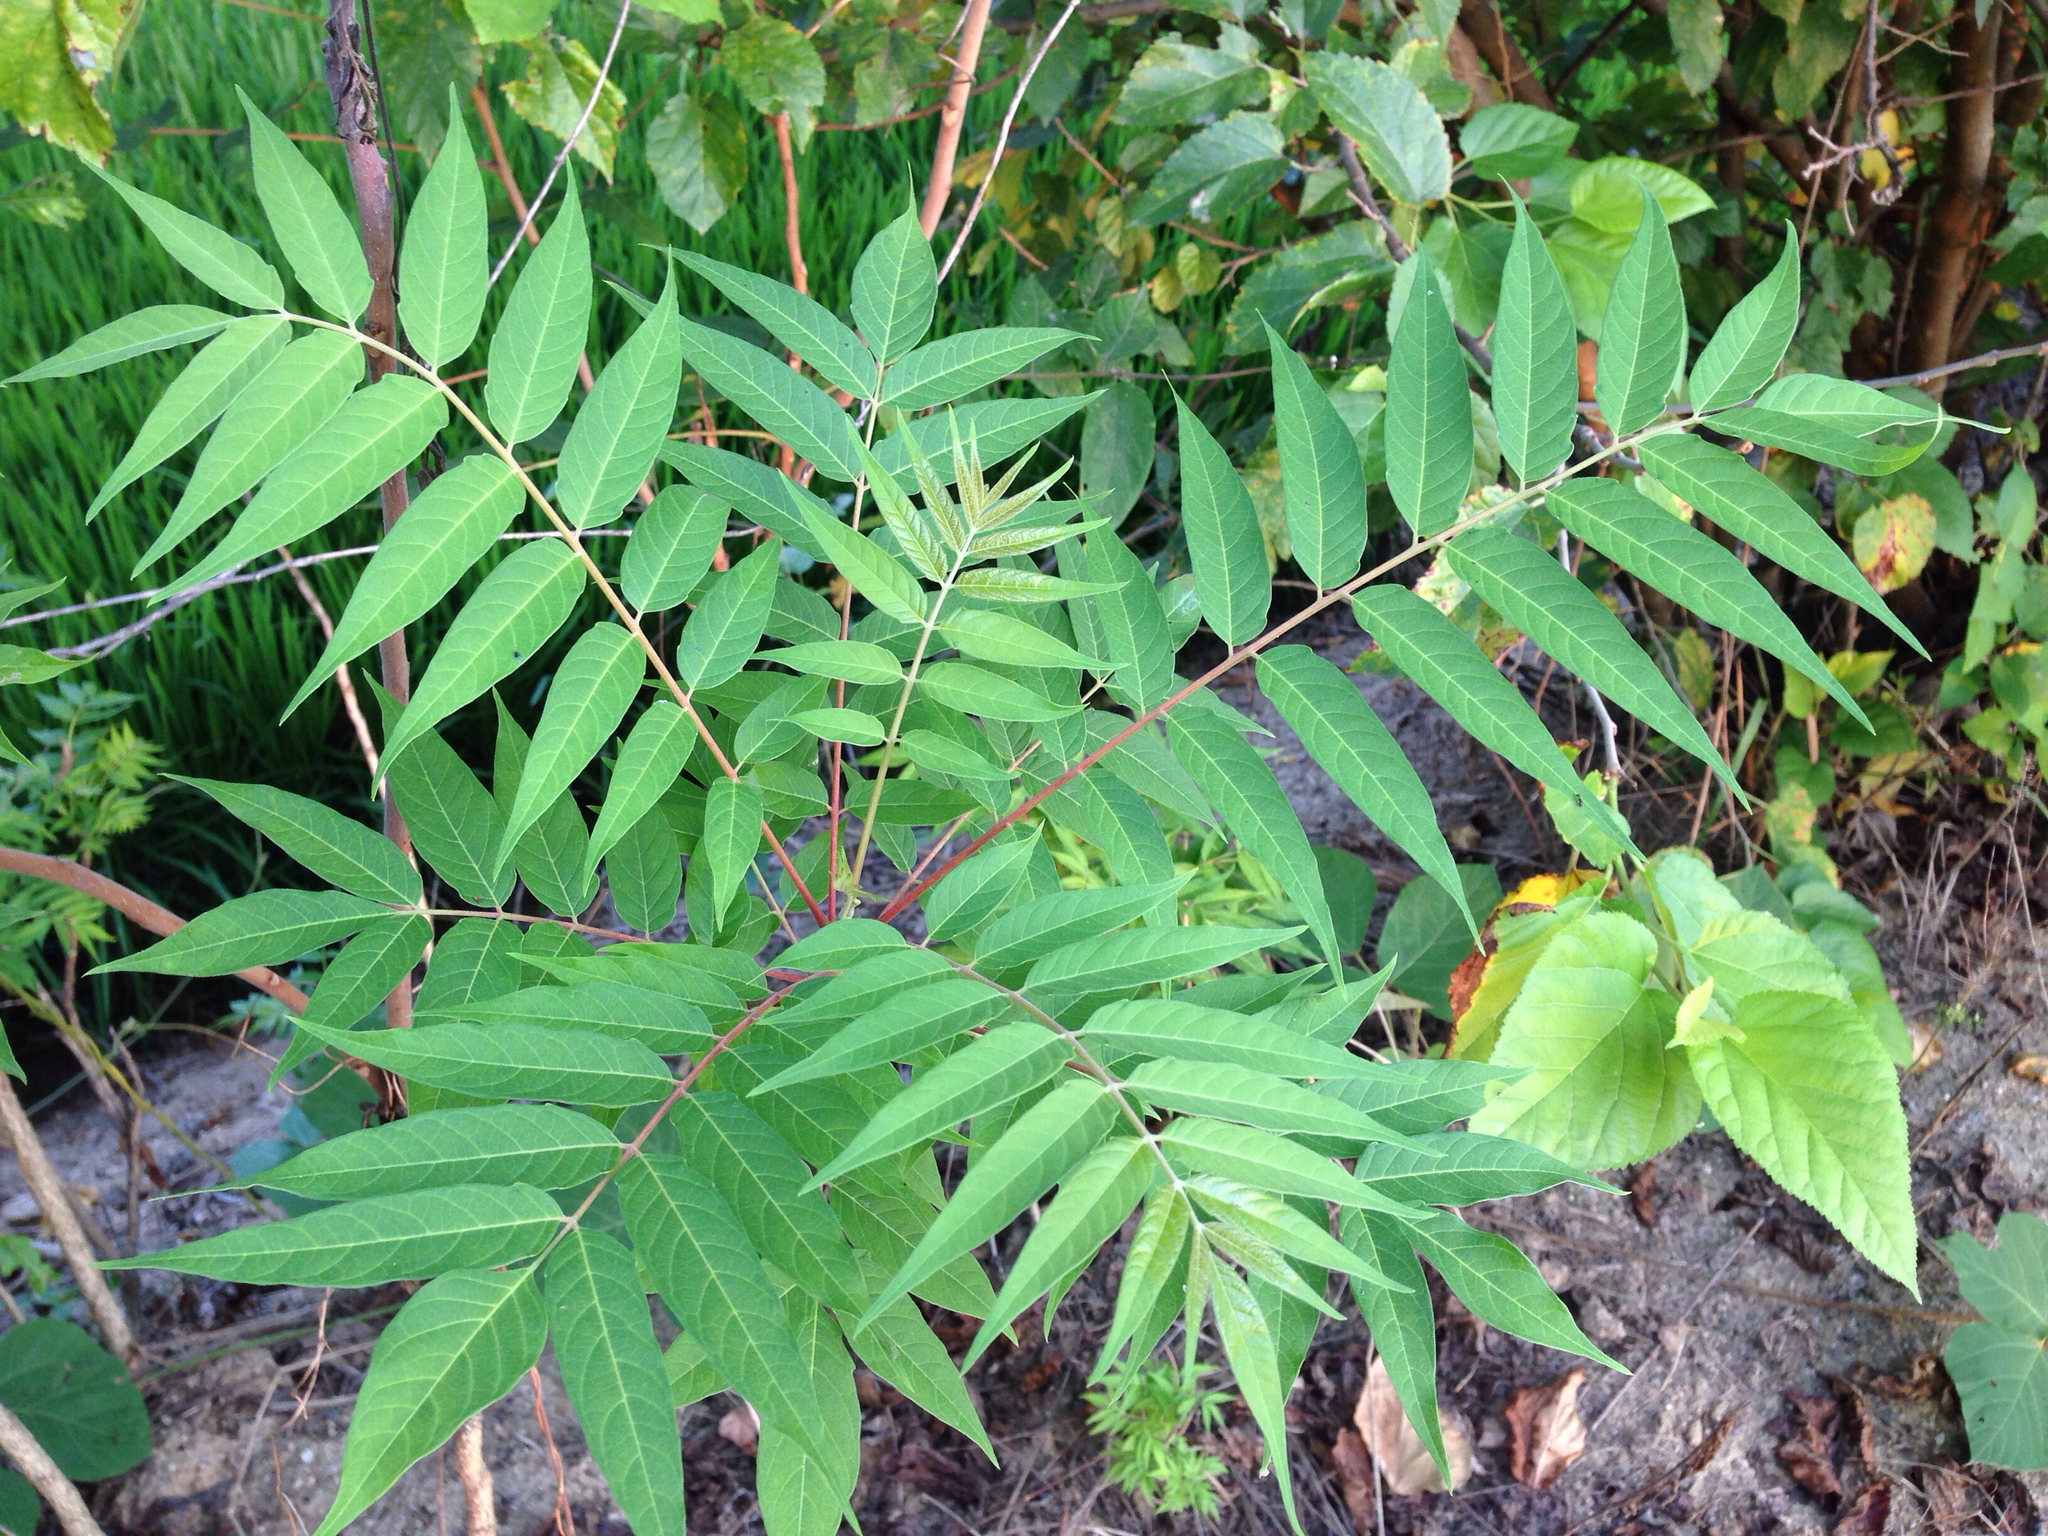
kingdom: Plantae
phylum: Tracheophyta
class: Magnoliopsida
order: Sapindales
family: Simaroubaceae
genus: Ailanthus
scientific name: Ailanthus altissima
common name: Tree-of-heaven
